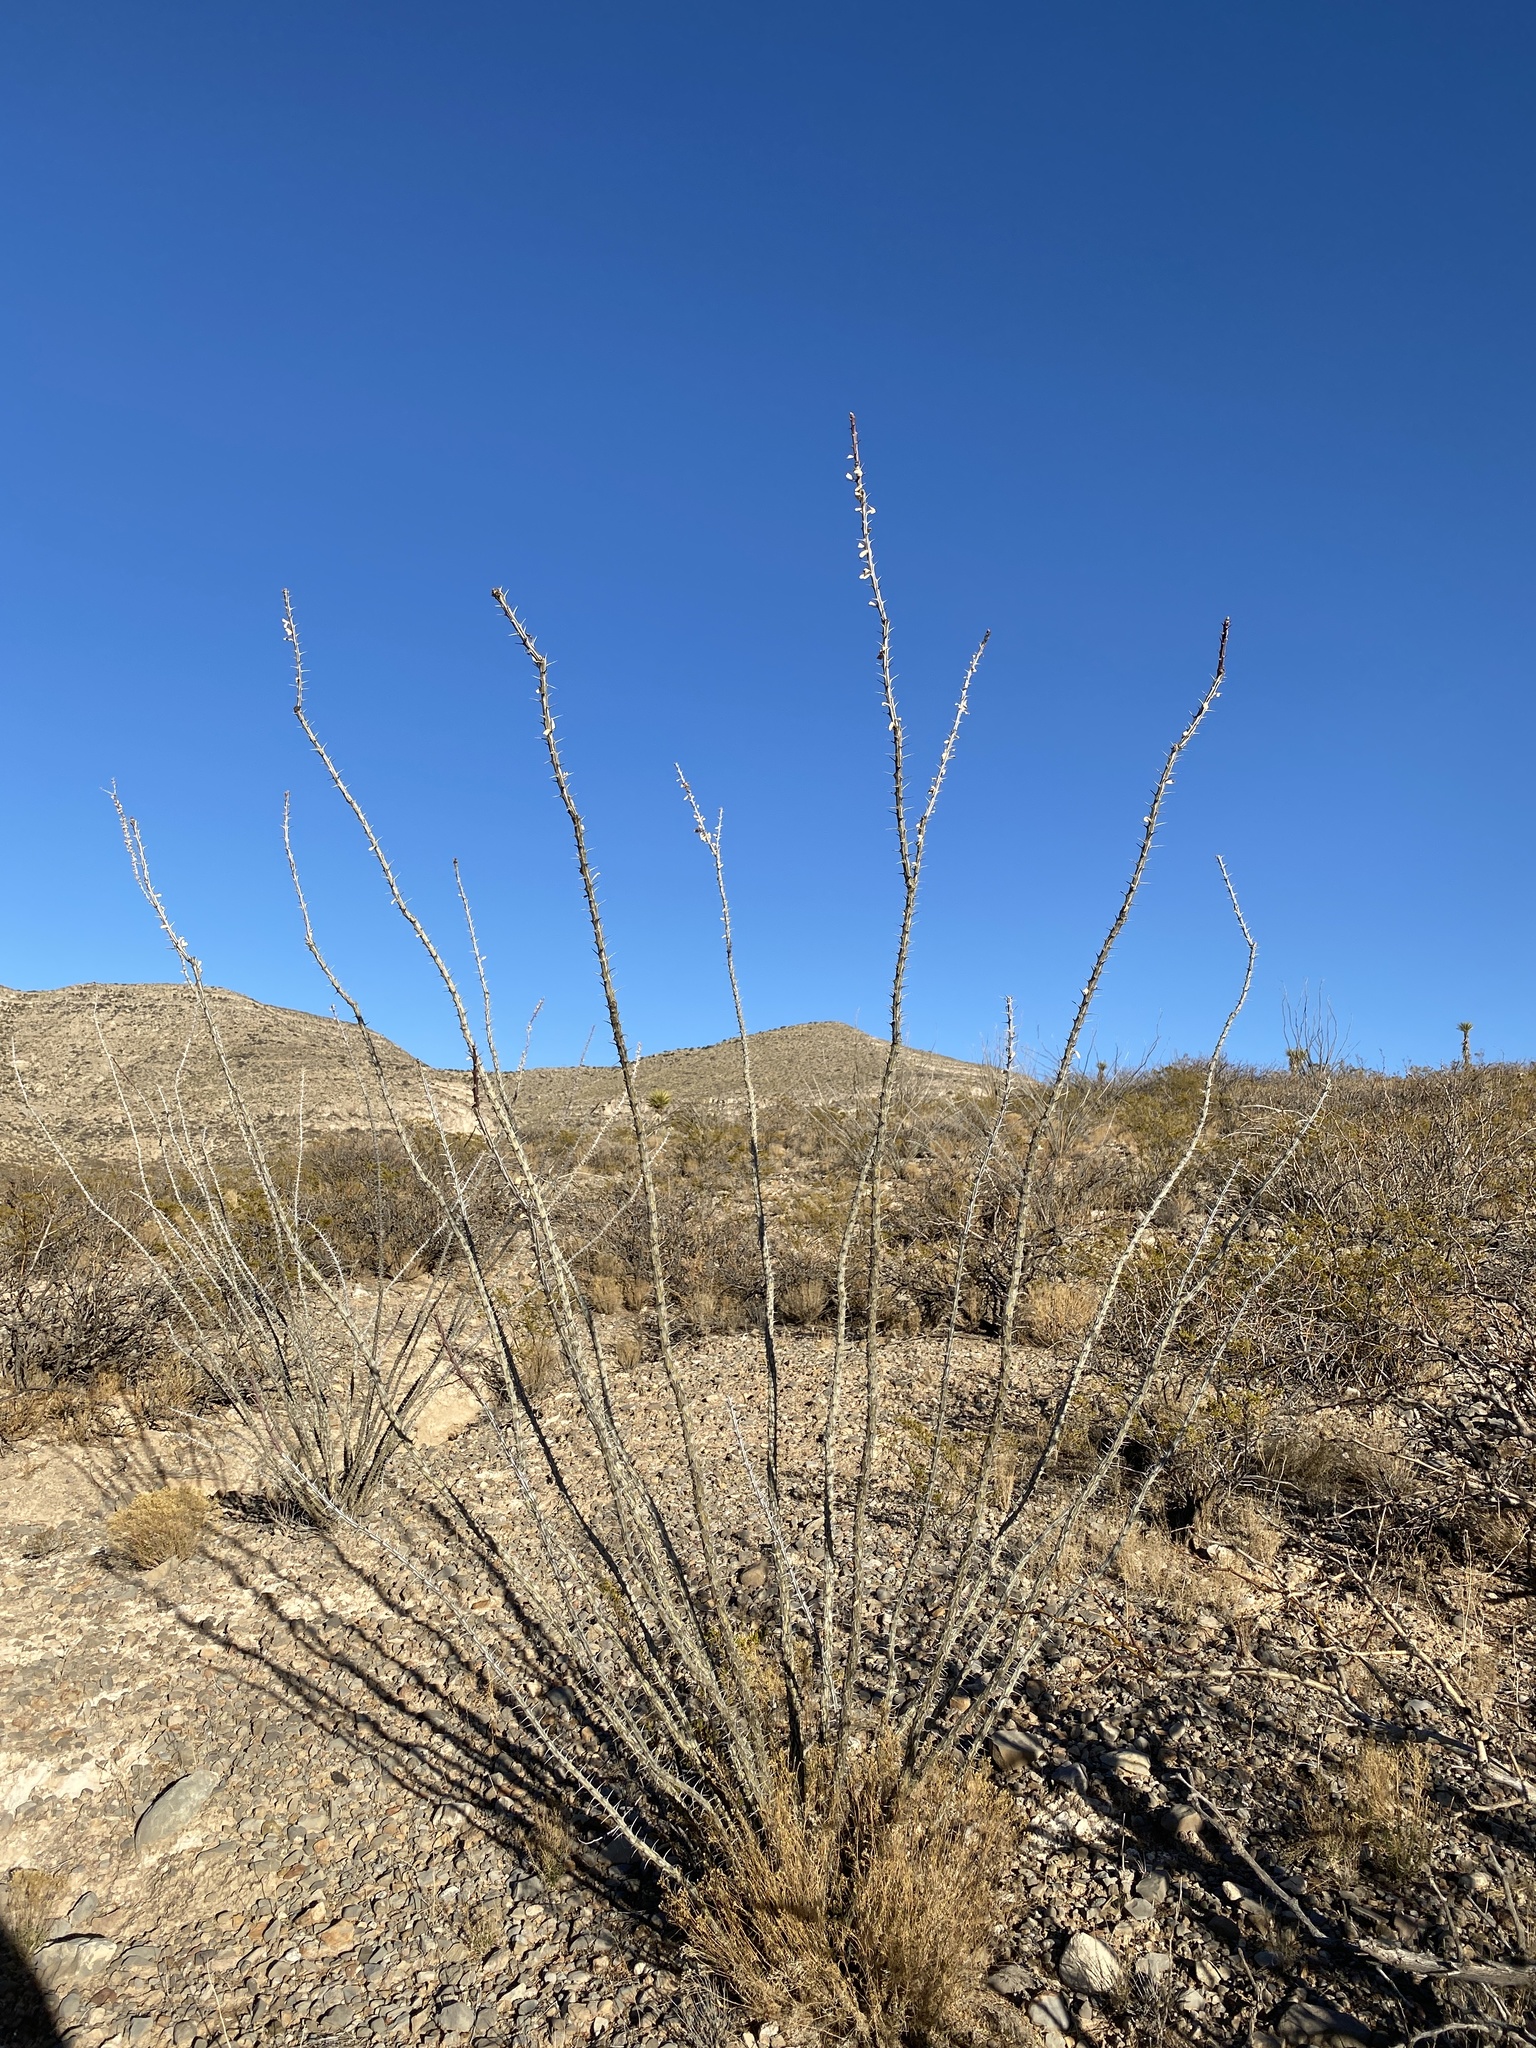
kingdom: Plantae
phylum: Tracheophyta
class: Magnoliopsida
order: Ericales
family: Fouquieriaceae
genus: Fouquieria
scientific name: Fouquieria splendens
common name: Vine-cactus
